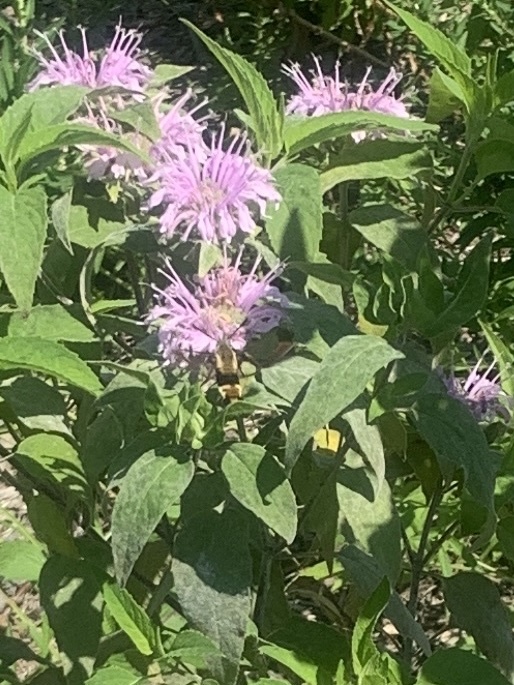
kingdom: Animalia
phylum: Arthropoda
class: Insecta
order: Lepidoptera
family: Sphingidae
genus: Hemaris
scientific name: Hemaris diffinis
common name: Bumblebee moth
